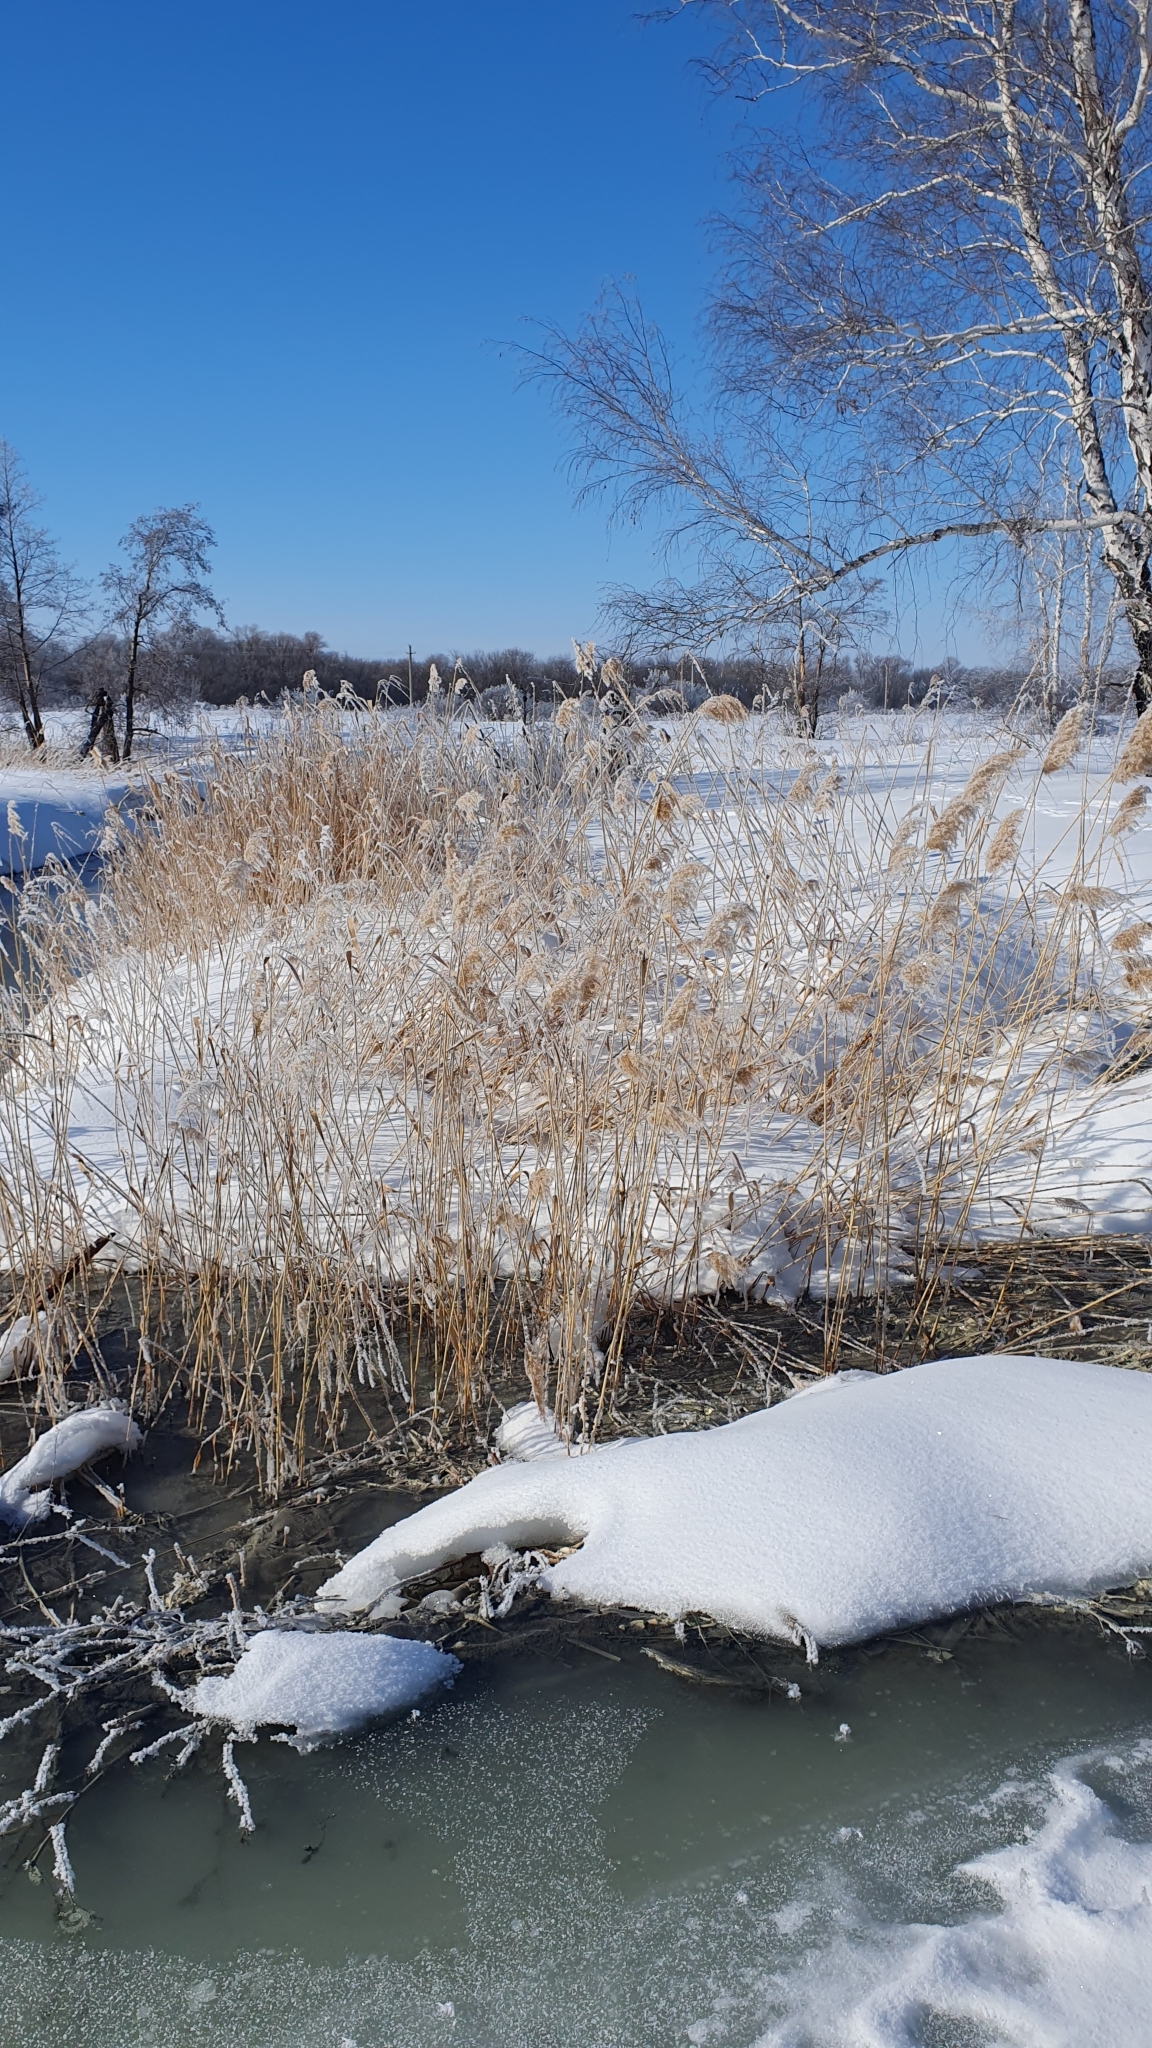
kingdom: Plantae
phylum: Tracheophyta
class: Liliopsida
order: Poales
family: Poaceae
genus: Phragmites
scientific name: Phragmites australis
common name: Common reed
